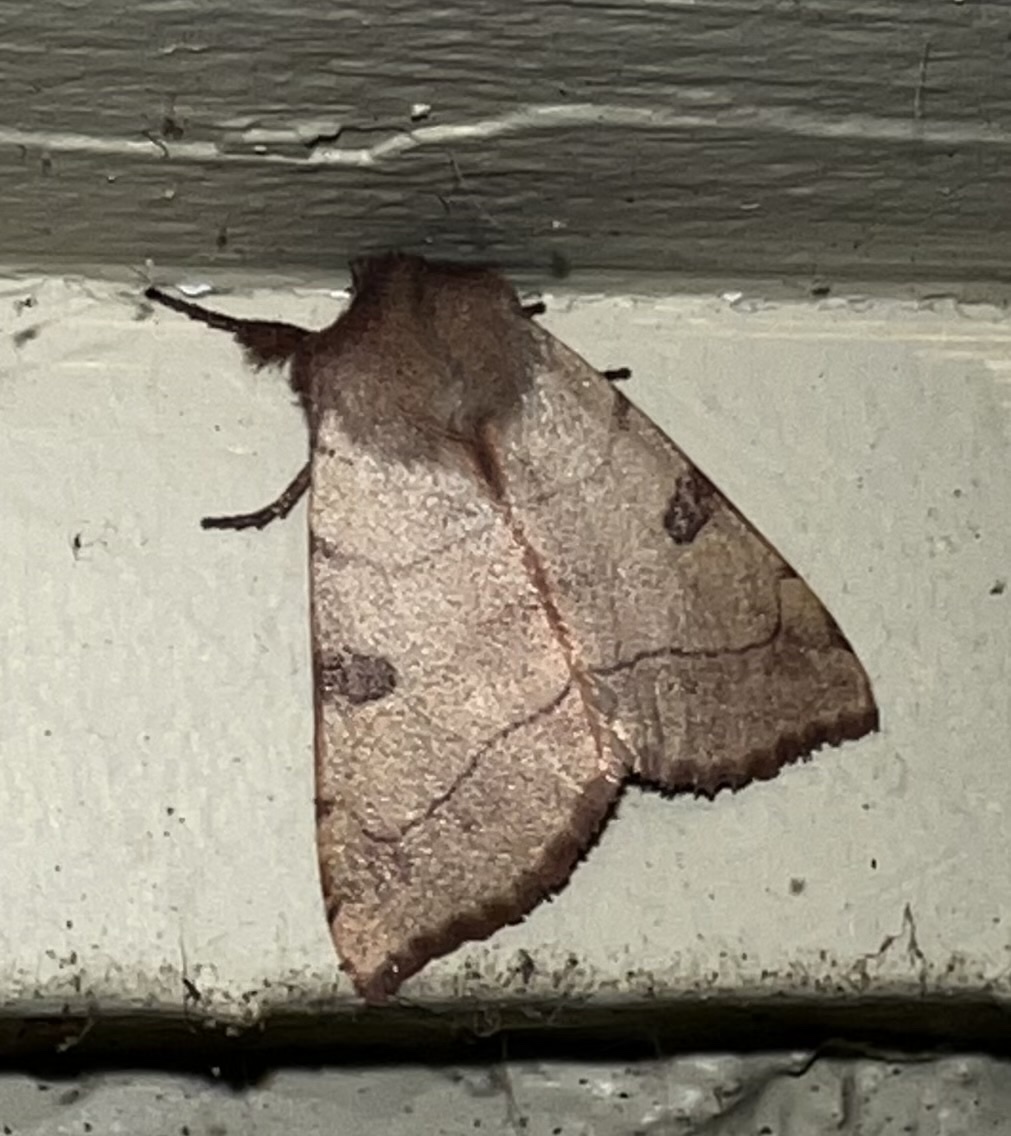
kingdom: Animalia
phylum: Arthropoda
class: Insecta
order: Lepidoptera
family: Noctuidae
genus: Choephora
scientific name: Choephora fungorum
